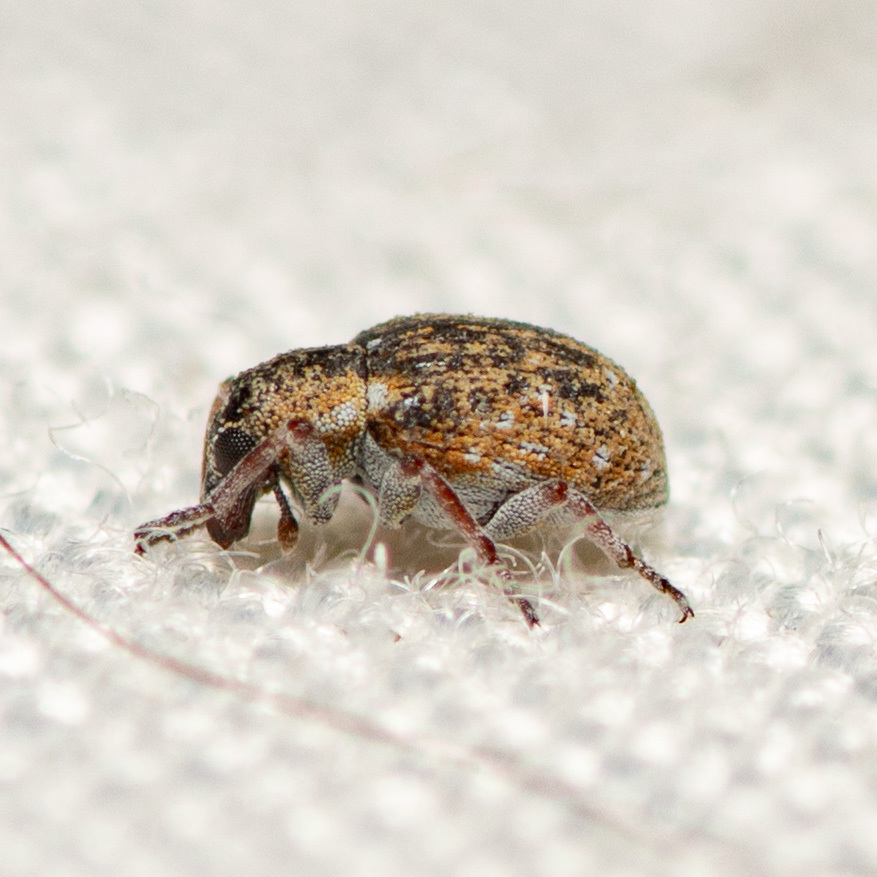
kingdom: Animalia
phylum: Arthropoda
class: Insecta
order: Coleoptera
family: Brachyceridae
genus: Stenopelmus
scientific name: Stenopelmus rufinasus
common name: Azolla weevil
